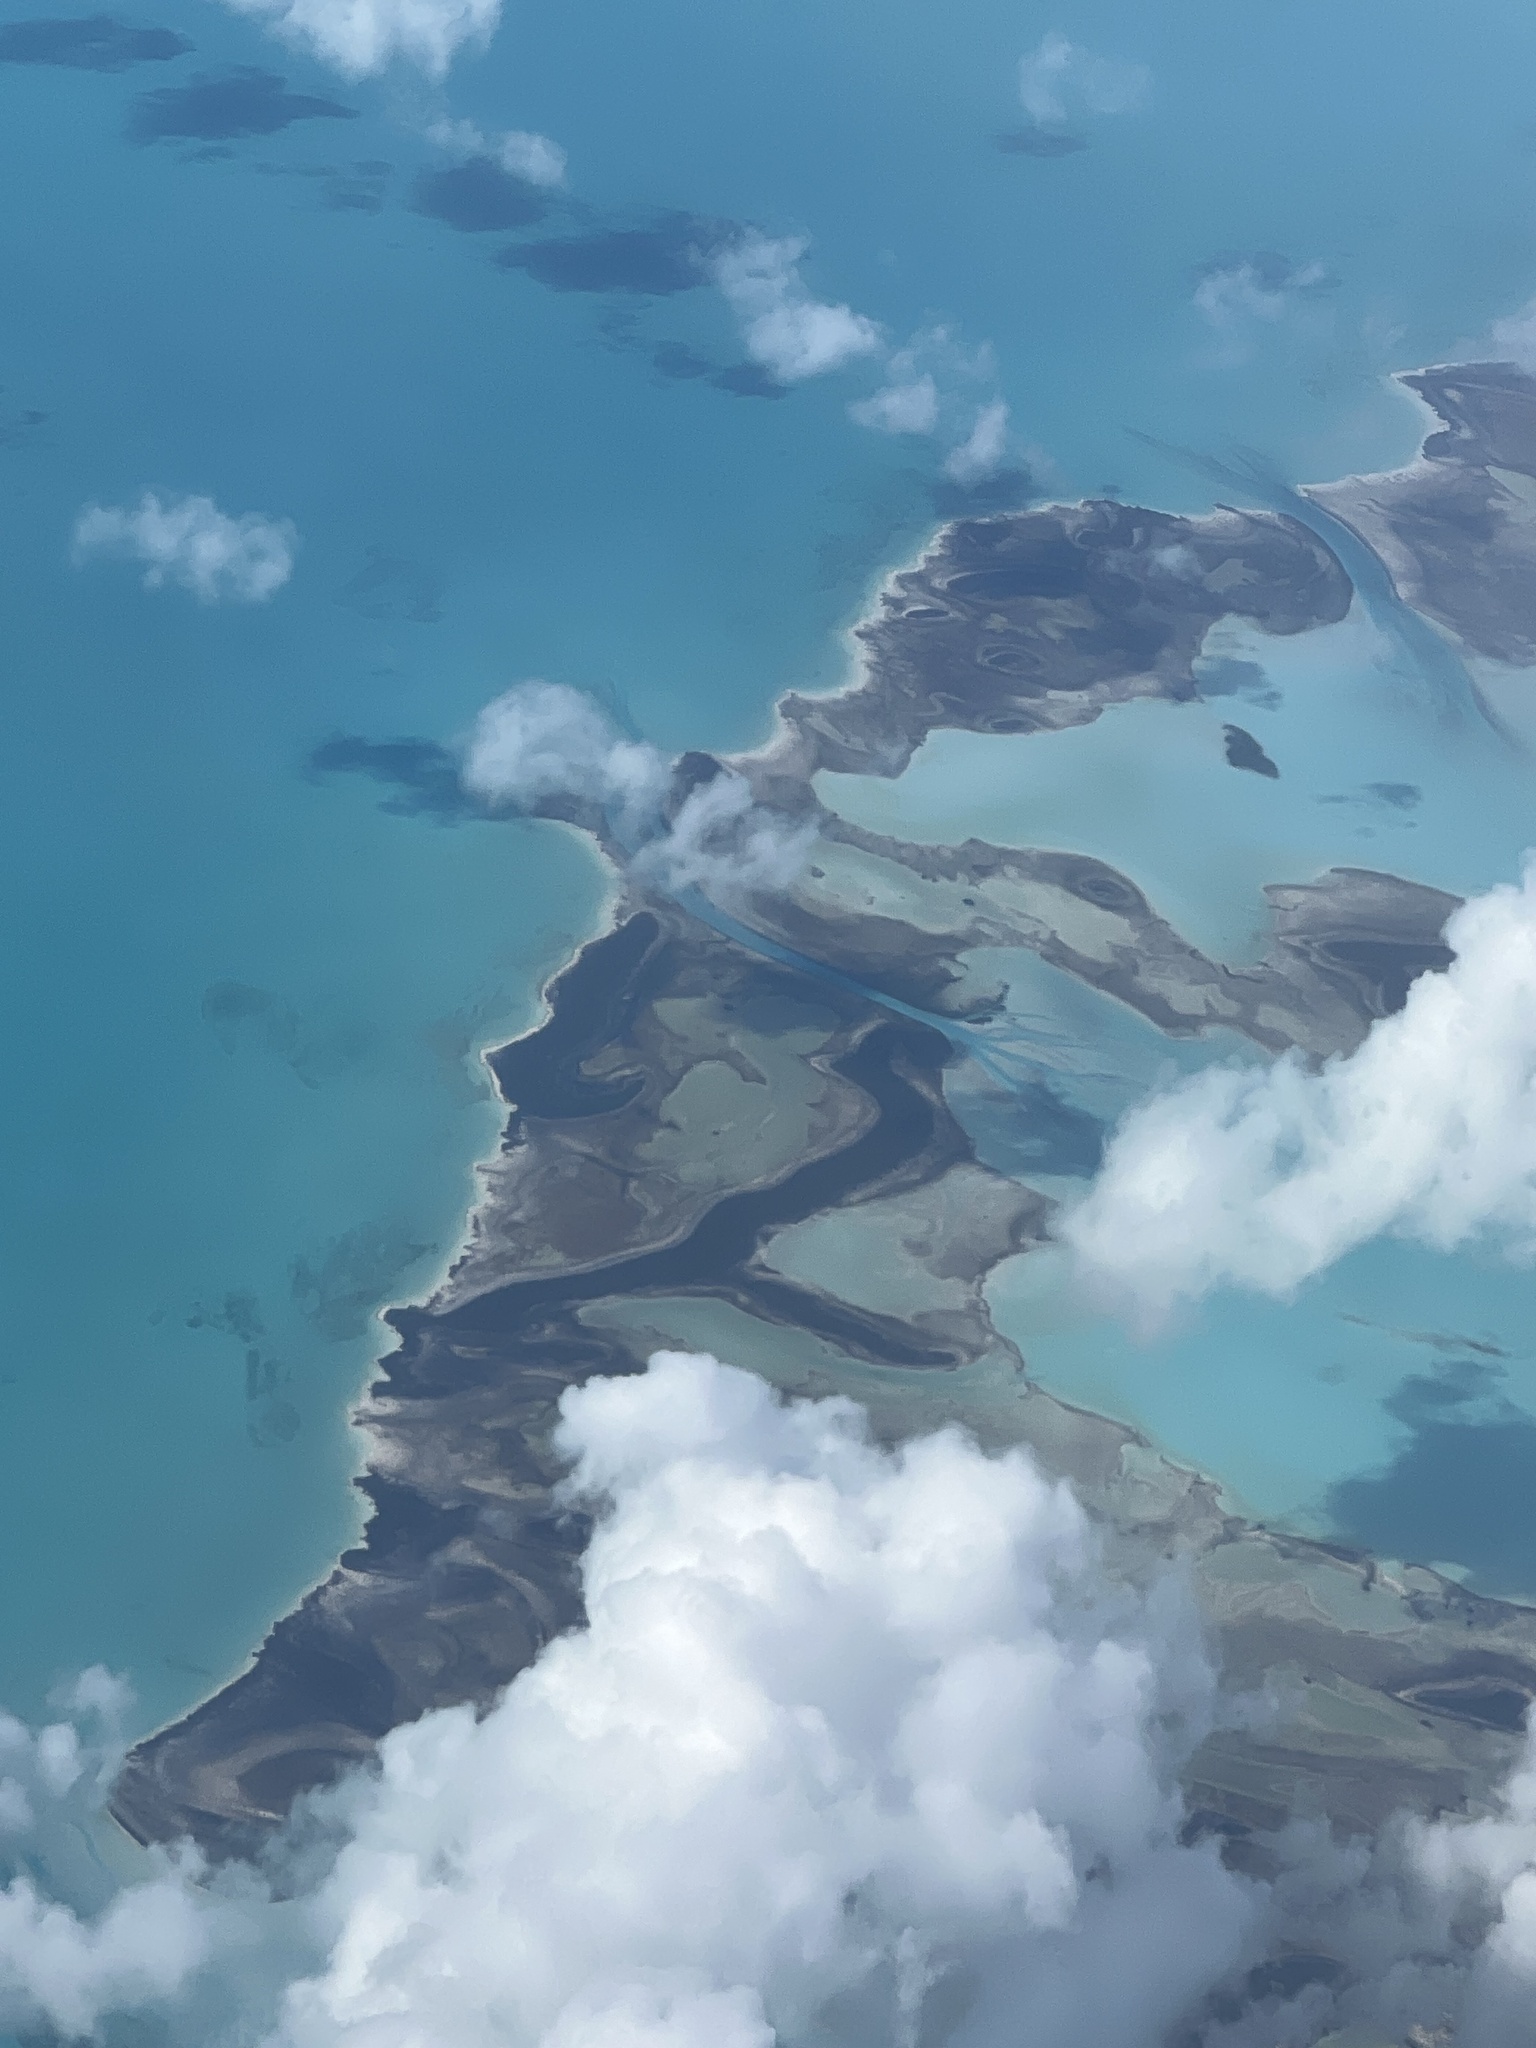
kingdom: Plantae
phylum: Tracheophyta
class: Magnoliopsida
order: Malpighiales
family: Rhizophoraceae
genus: Rhizophora
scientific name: Rhizophora mangle
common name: Red mangrove
